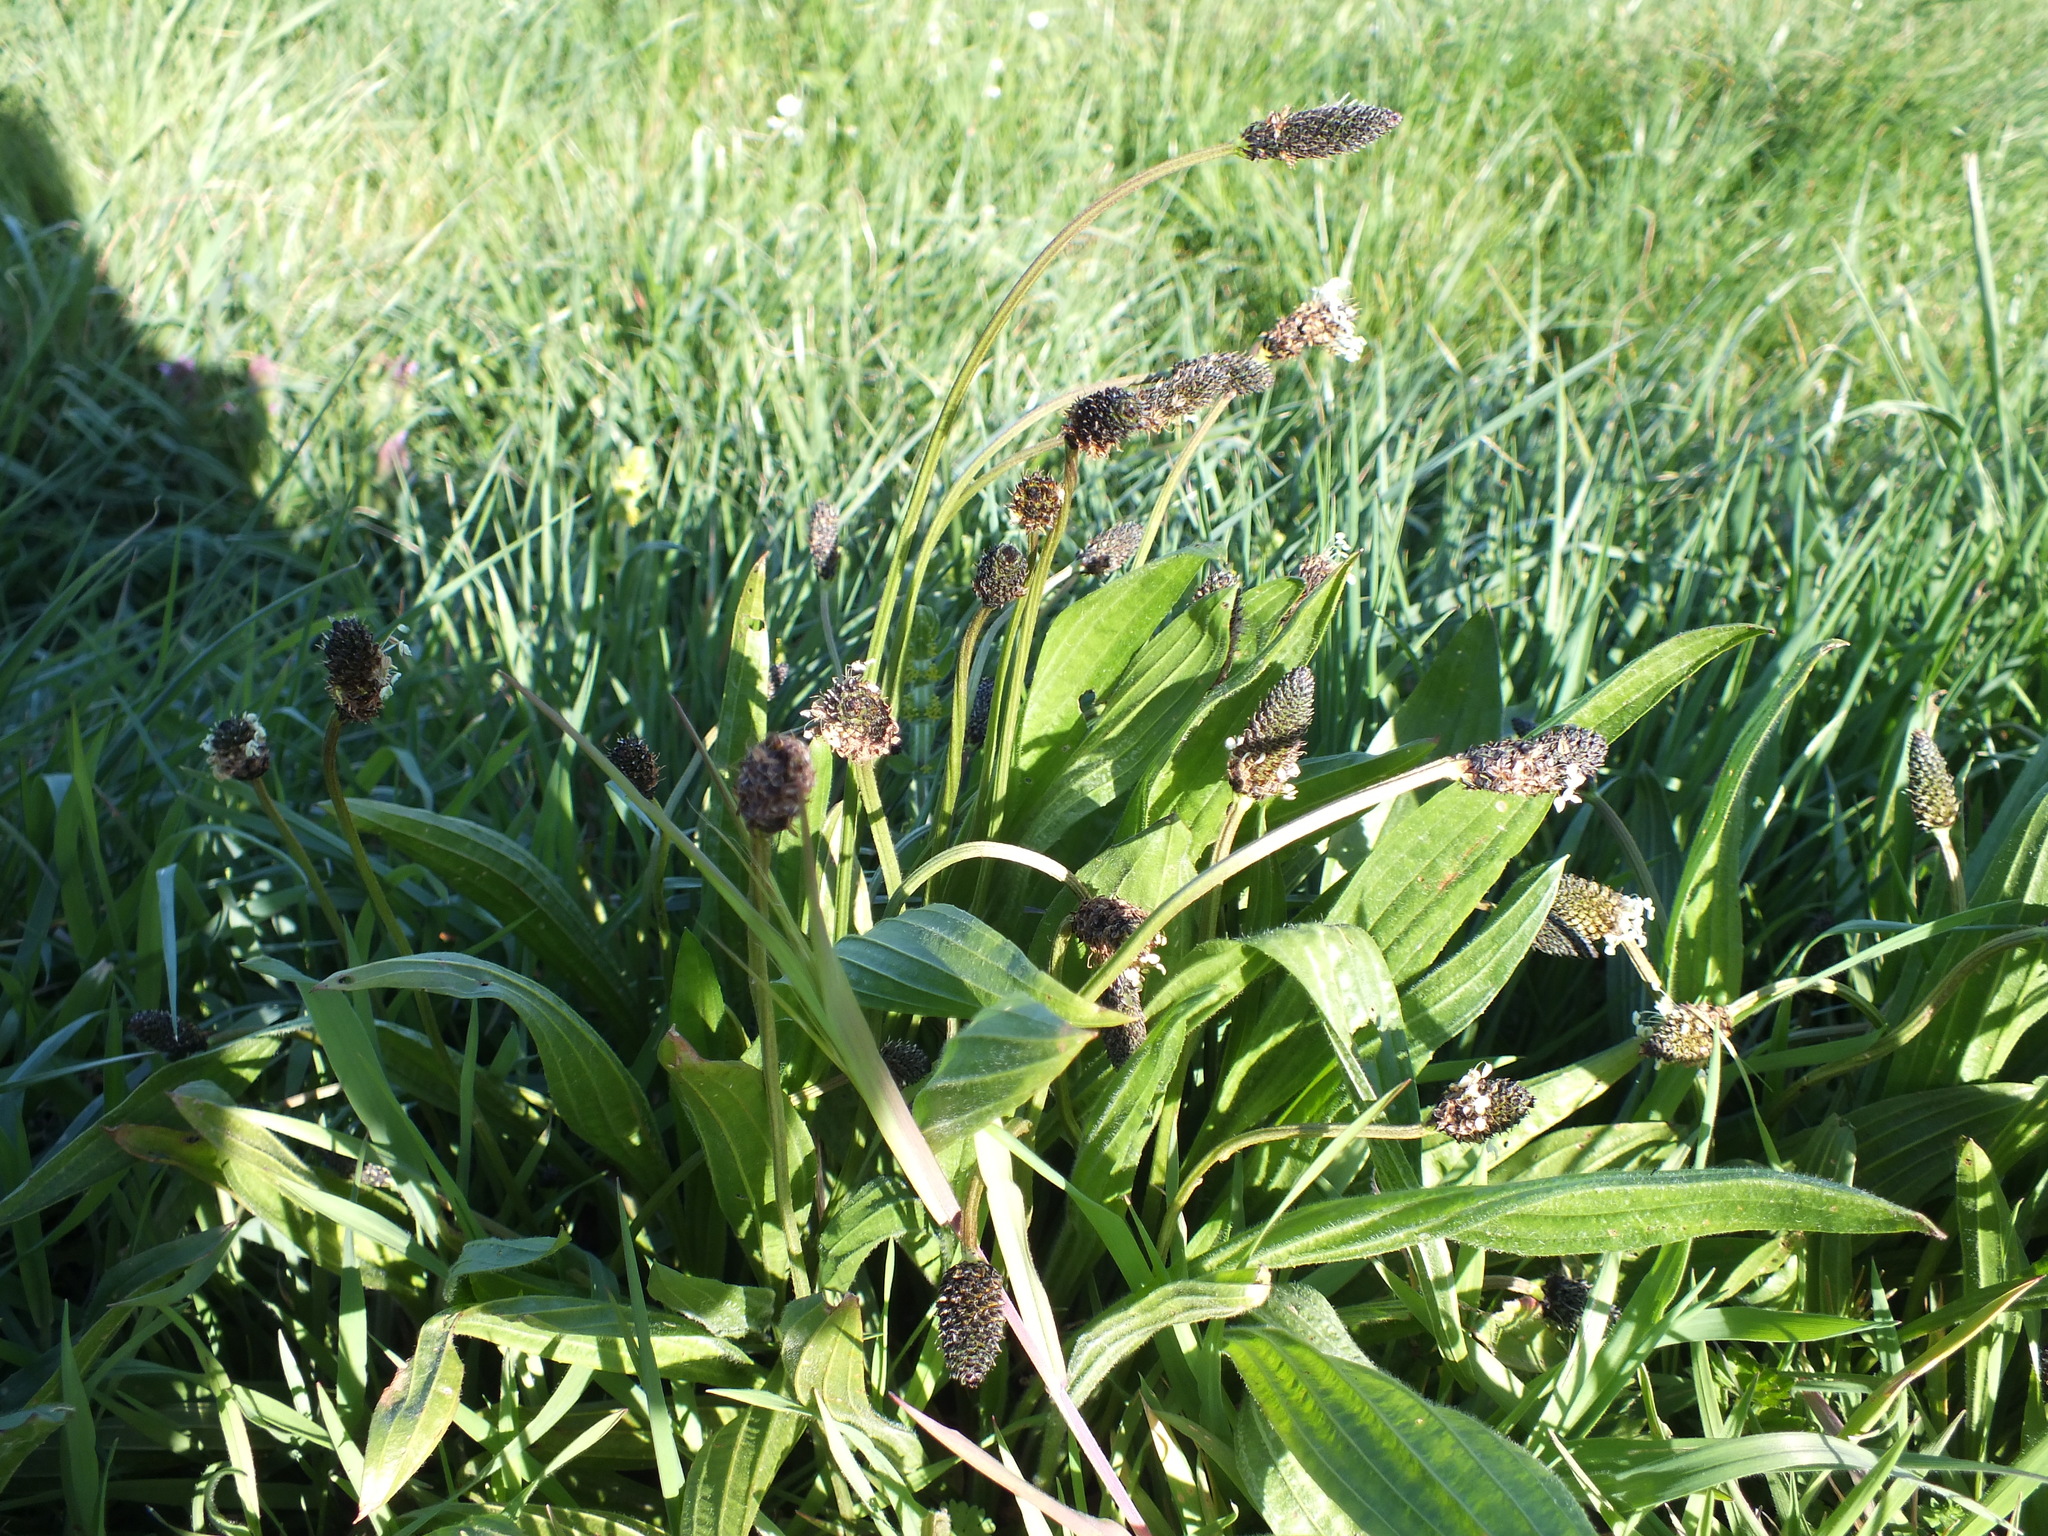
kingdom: Plantae
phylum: Tracheophyta
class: Magnoliopsida
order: Lamiales
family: Plantaginaceae
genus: Plantago
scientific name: Plantago lanceolata
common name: Ribwort plantain
